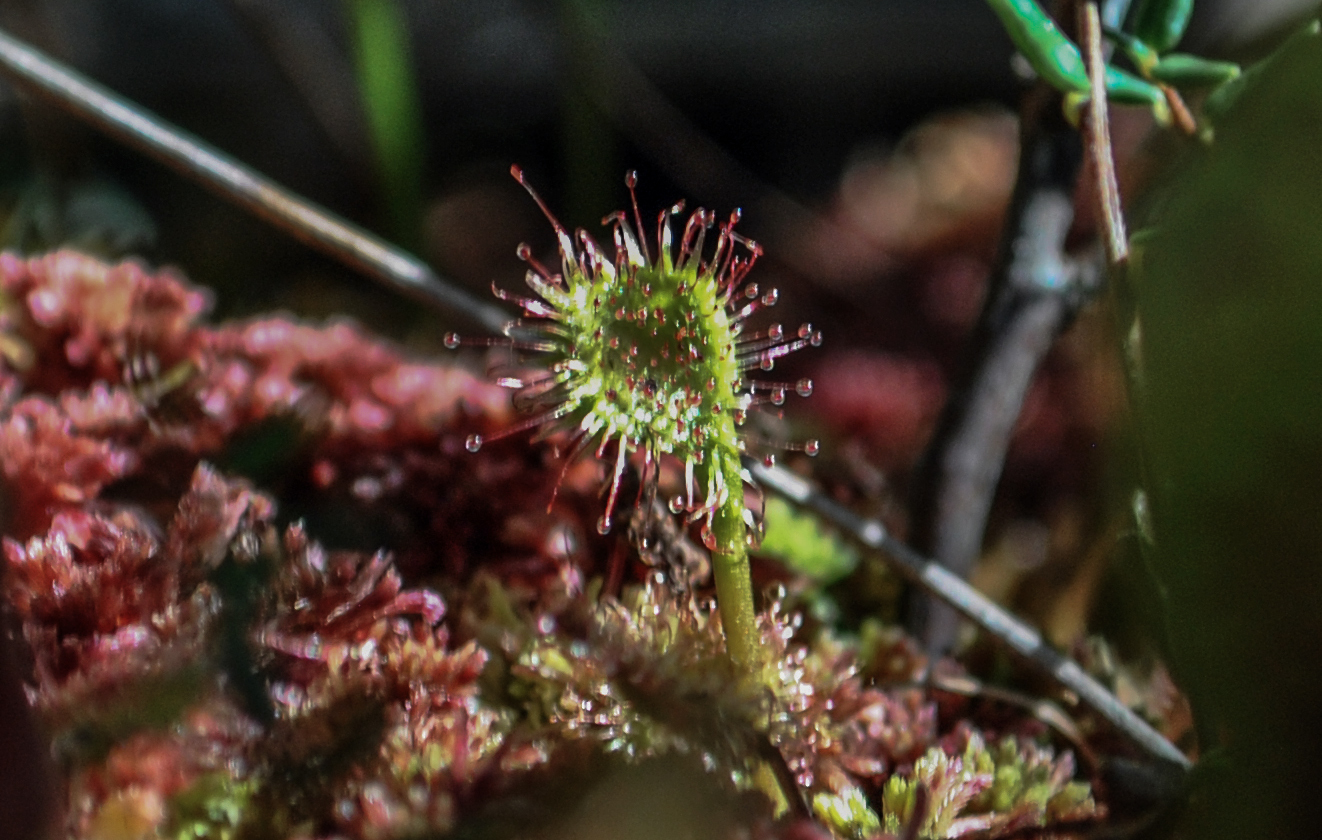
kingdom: Plantae
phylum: Tracheophyta
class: Magnoliopsida
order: Caryophyllales
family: Droseraceae
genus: Drosera
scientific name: Drosera rotundifolia
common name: Round-leaved sundew
